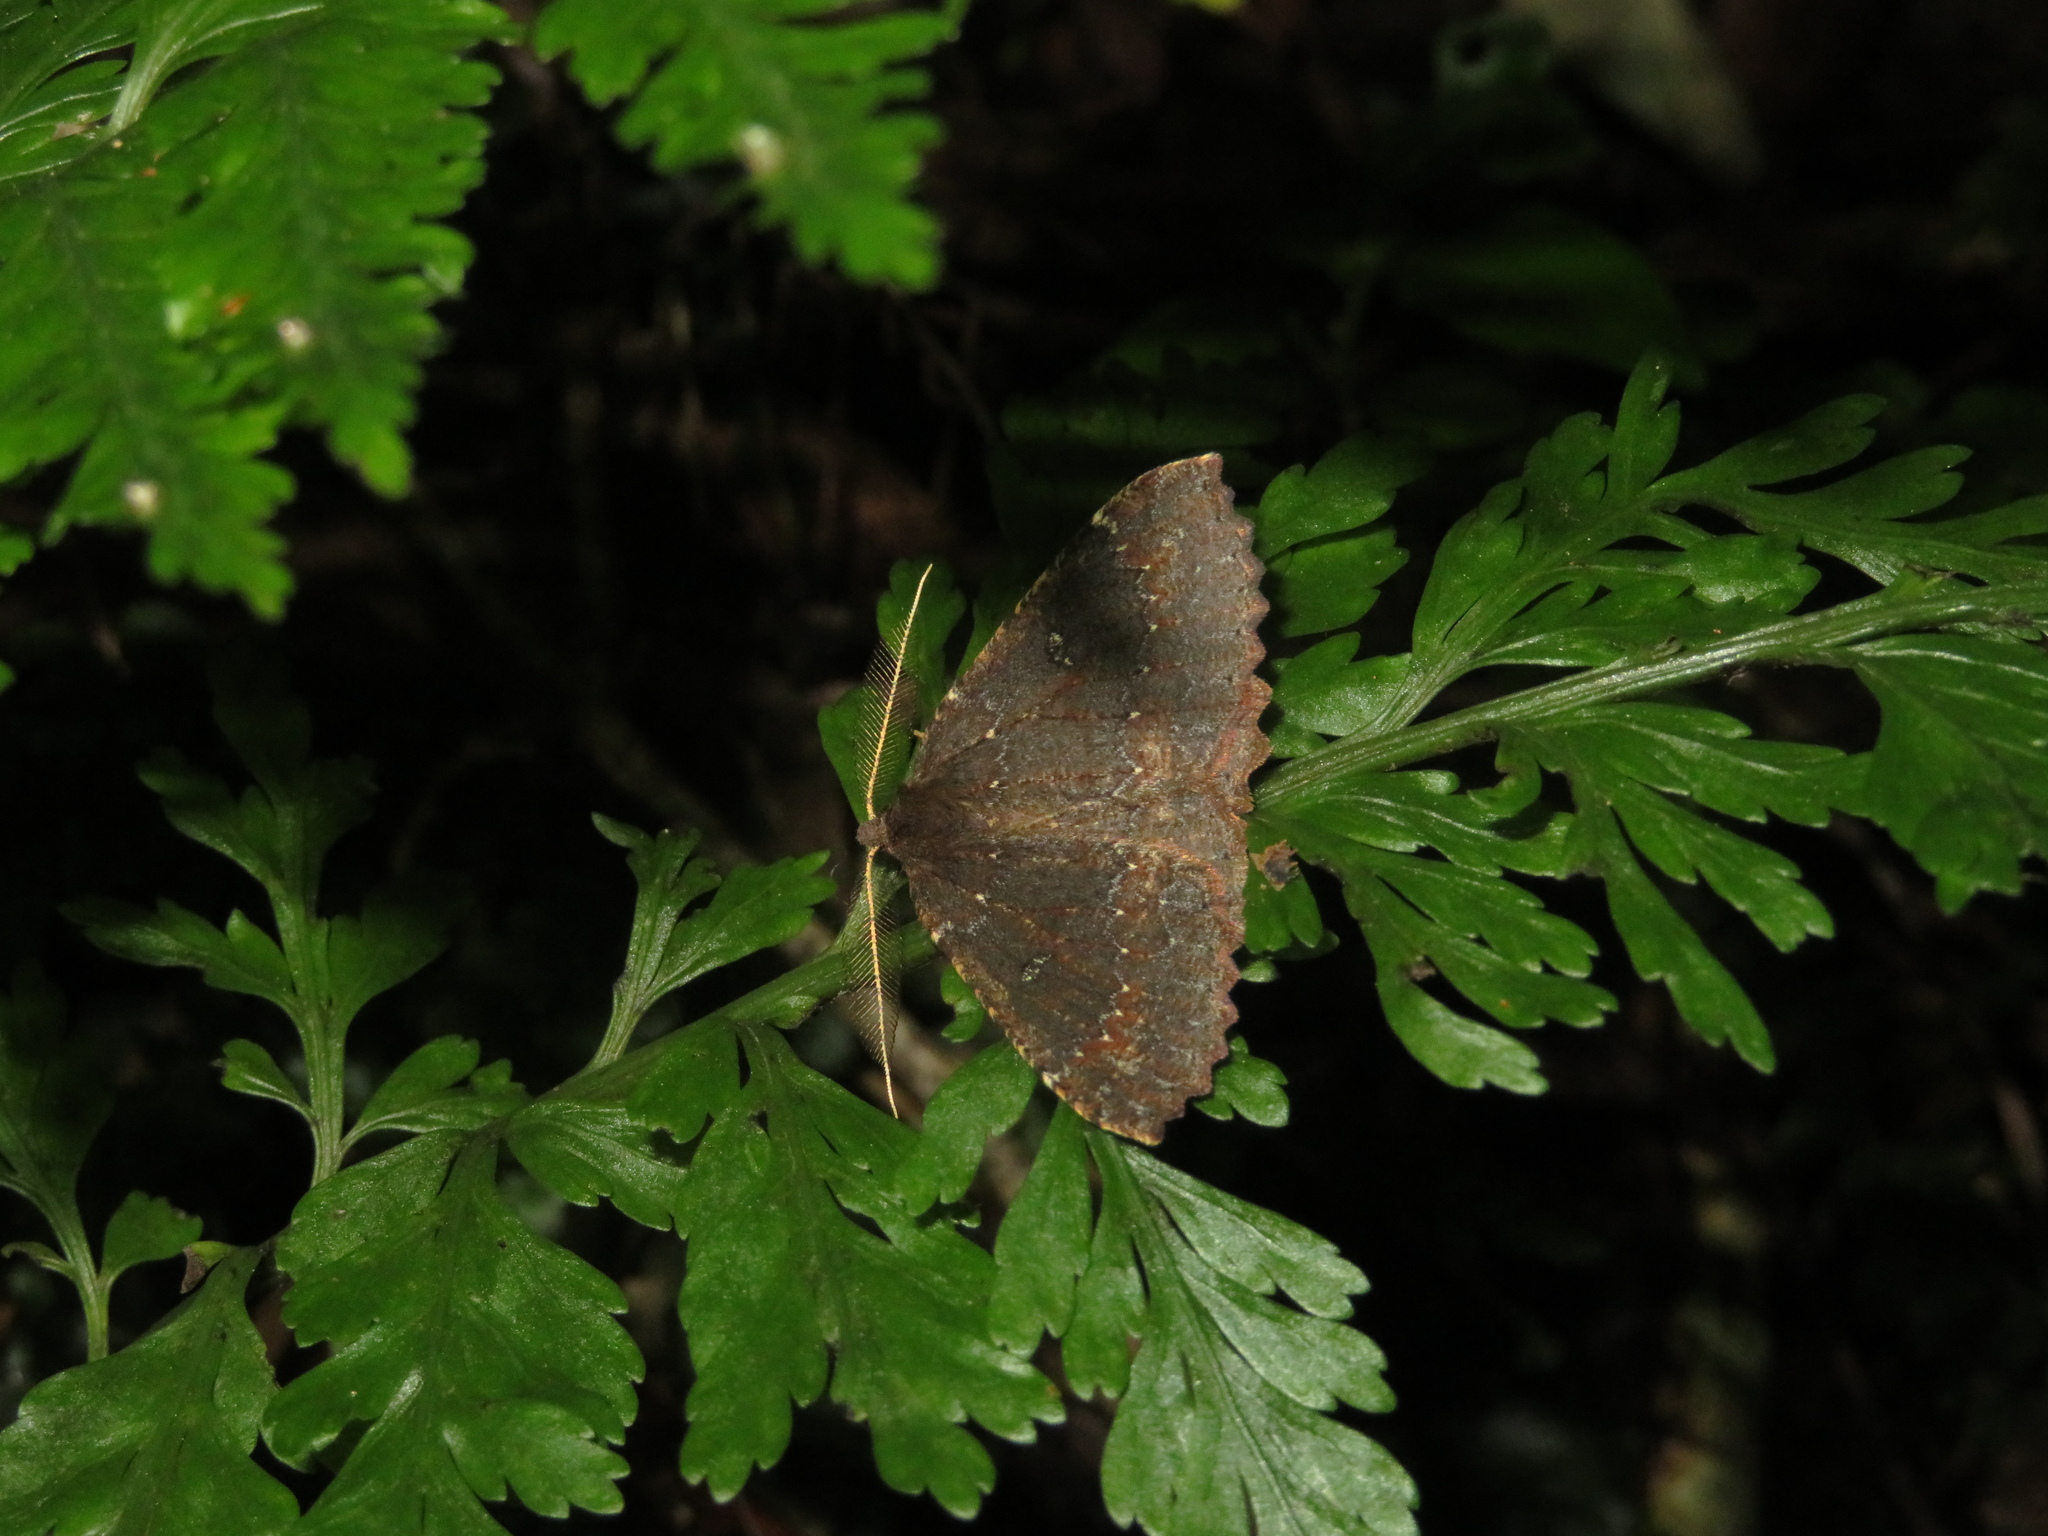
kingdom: Animalia
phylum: Arthropoda
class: Insecta
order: Lepidoptera
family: Geometridae
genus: Cleora
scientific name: Cleora scriptaria
